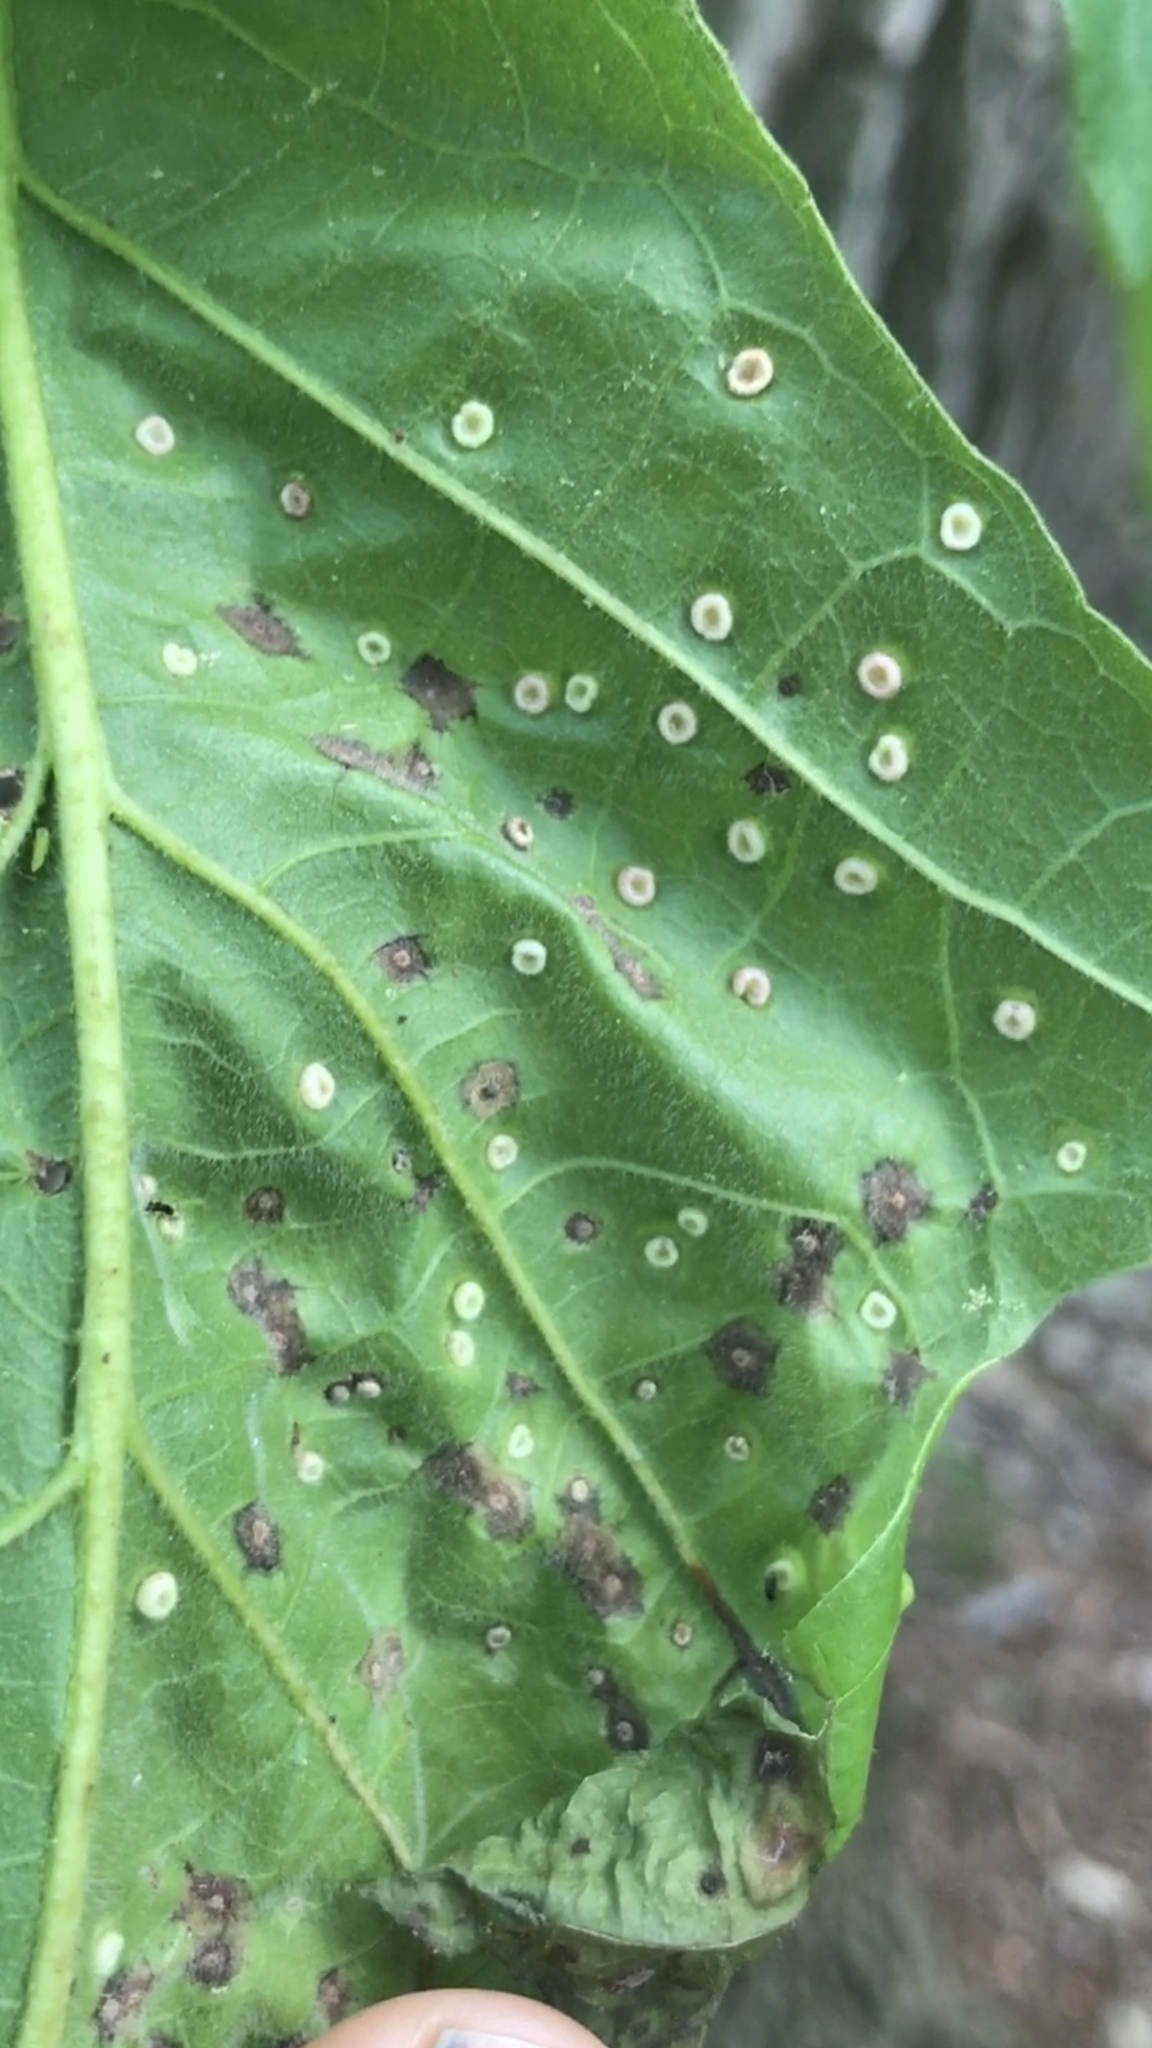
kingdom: Animalia
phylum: Arthropoda
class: Insecta
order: Hymenoptera
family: Cynipidae
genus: Neuroterus
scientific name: Neuroterus
